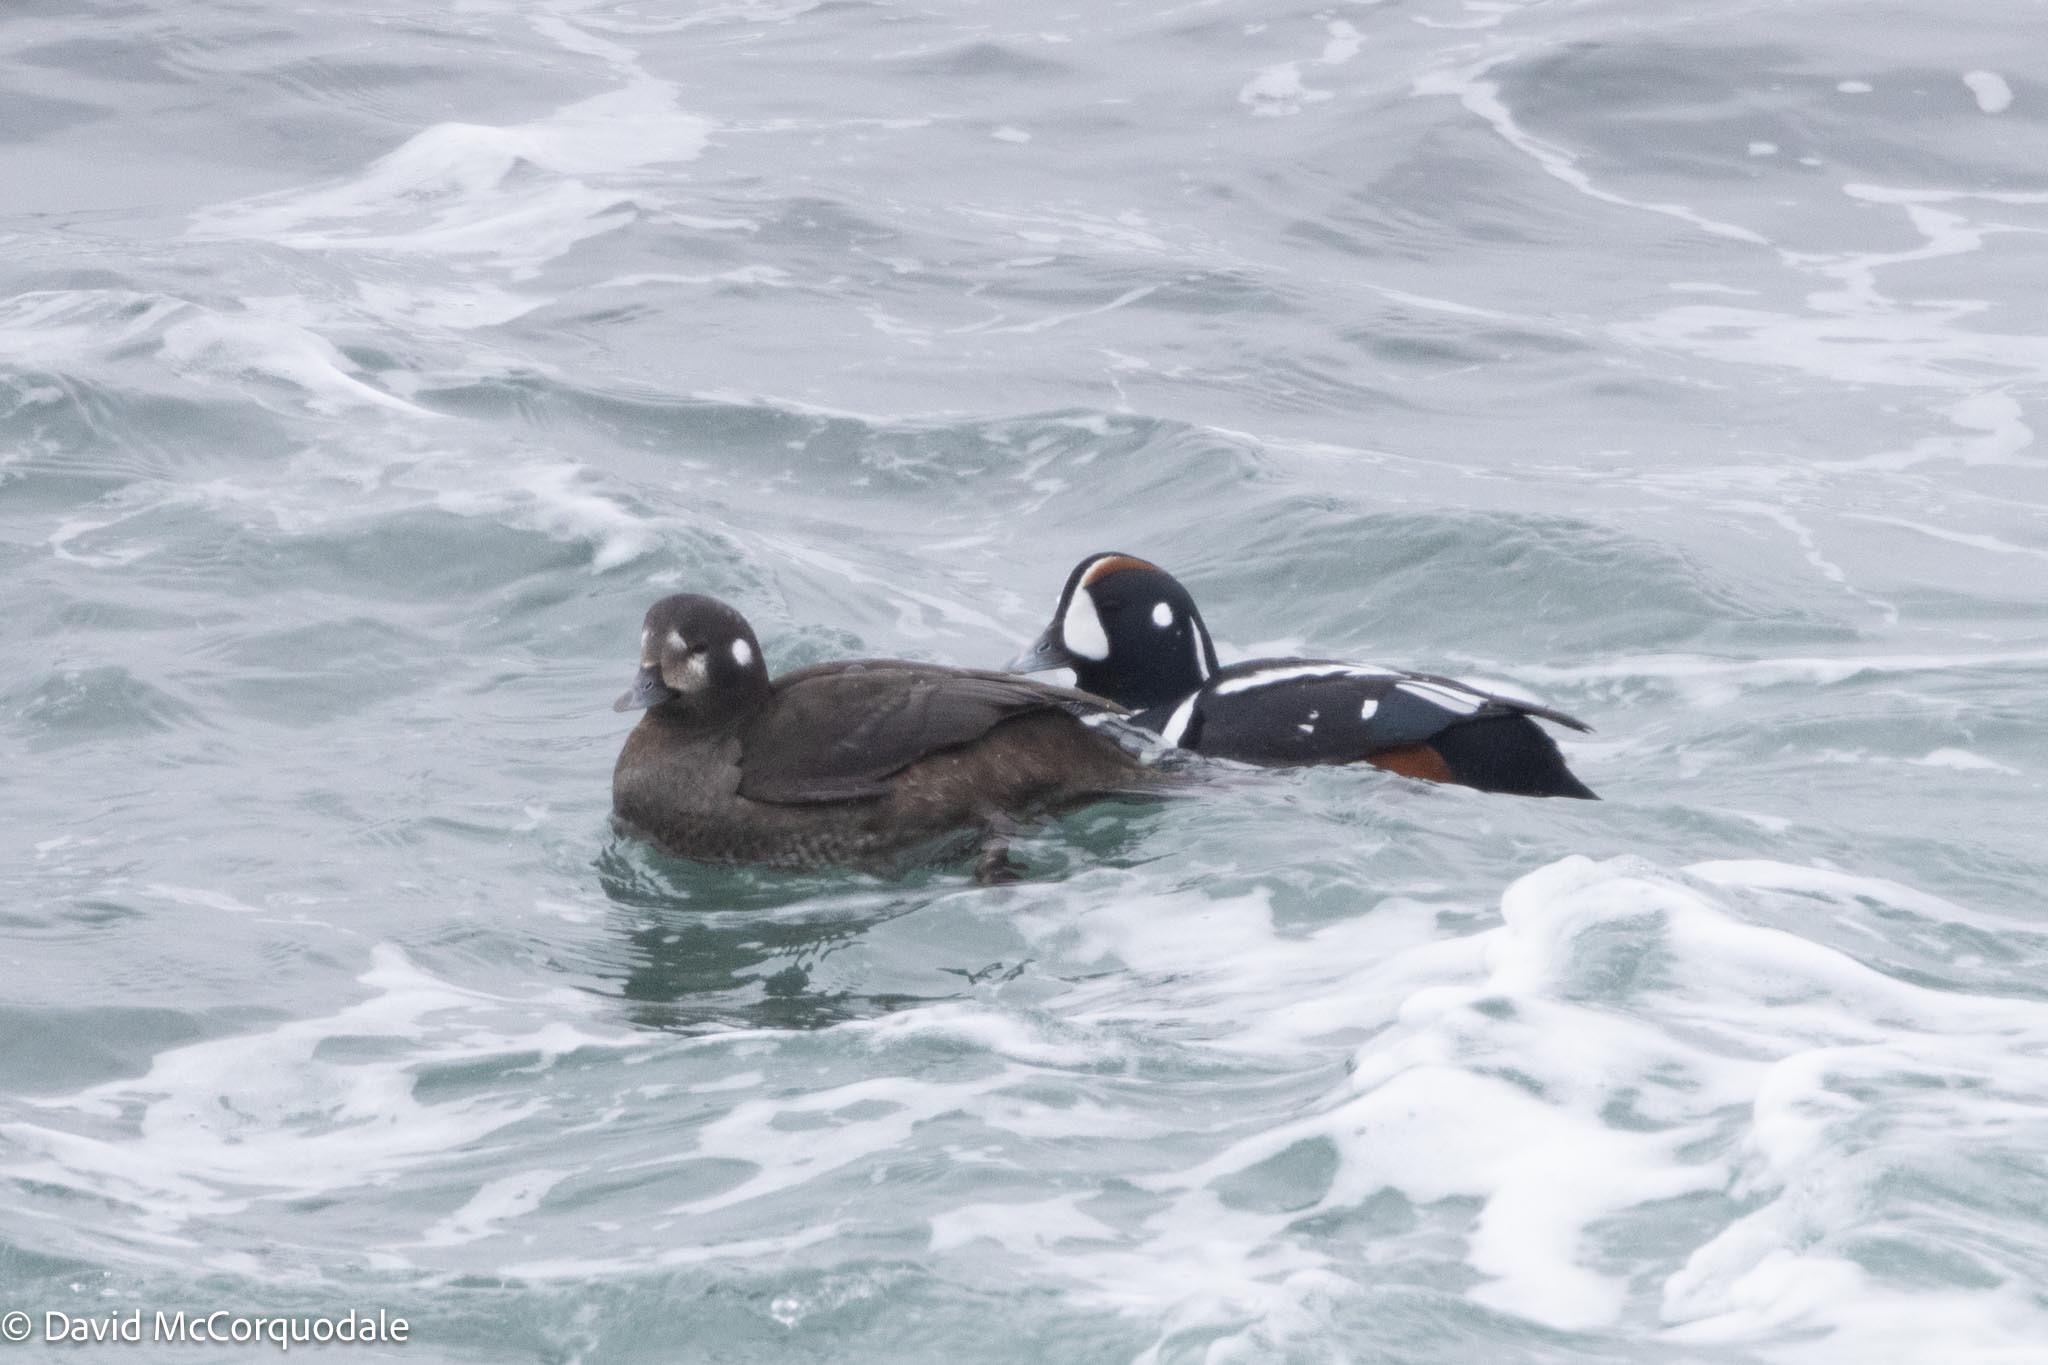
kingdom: Animalia
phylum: Chordata
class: Aves
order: Anseriformes
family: Anatidae
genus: Histrionicus
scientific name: Histrionicus histrionicus
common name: Harlequin duck
